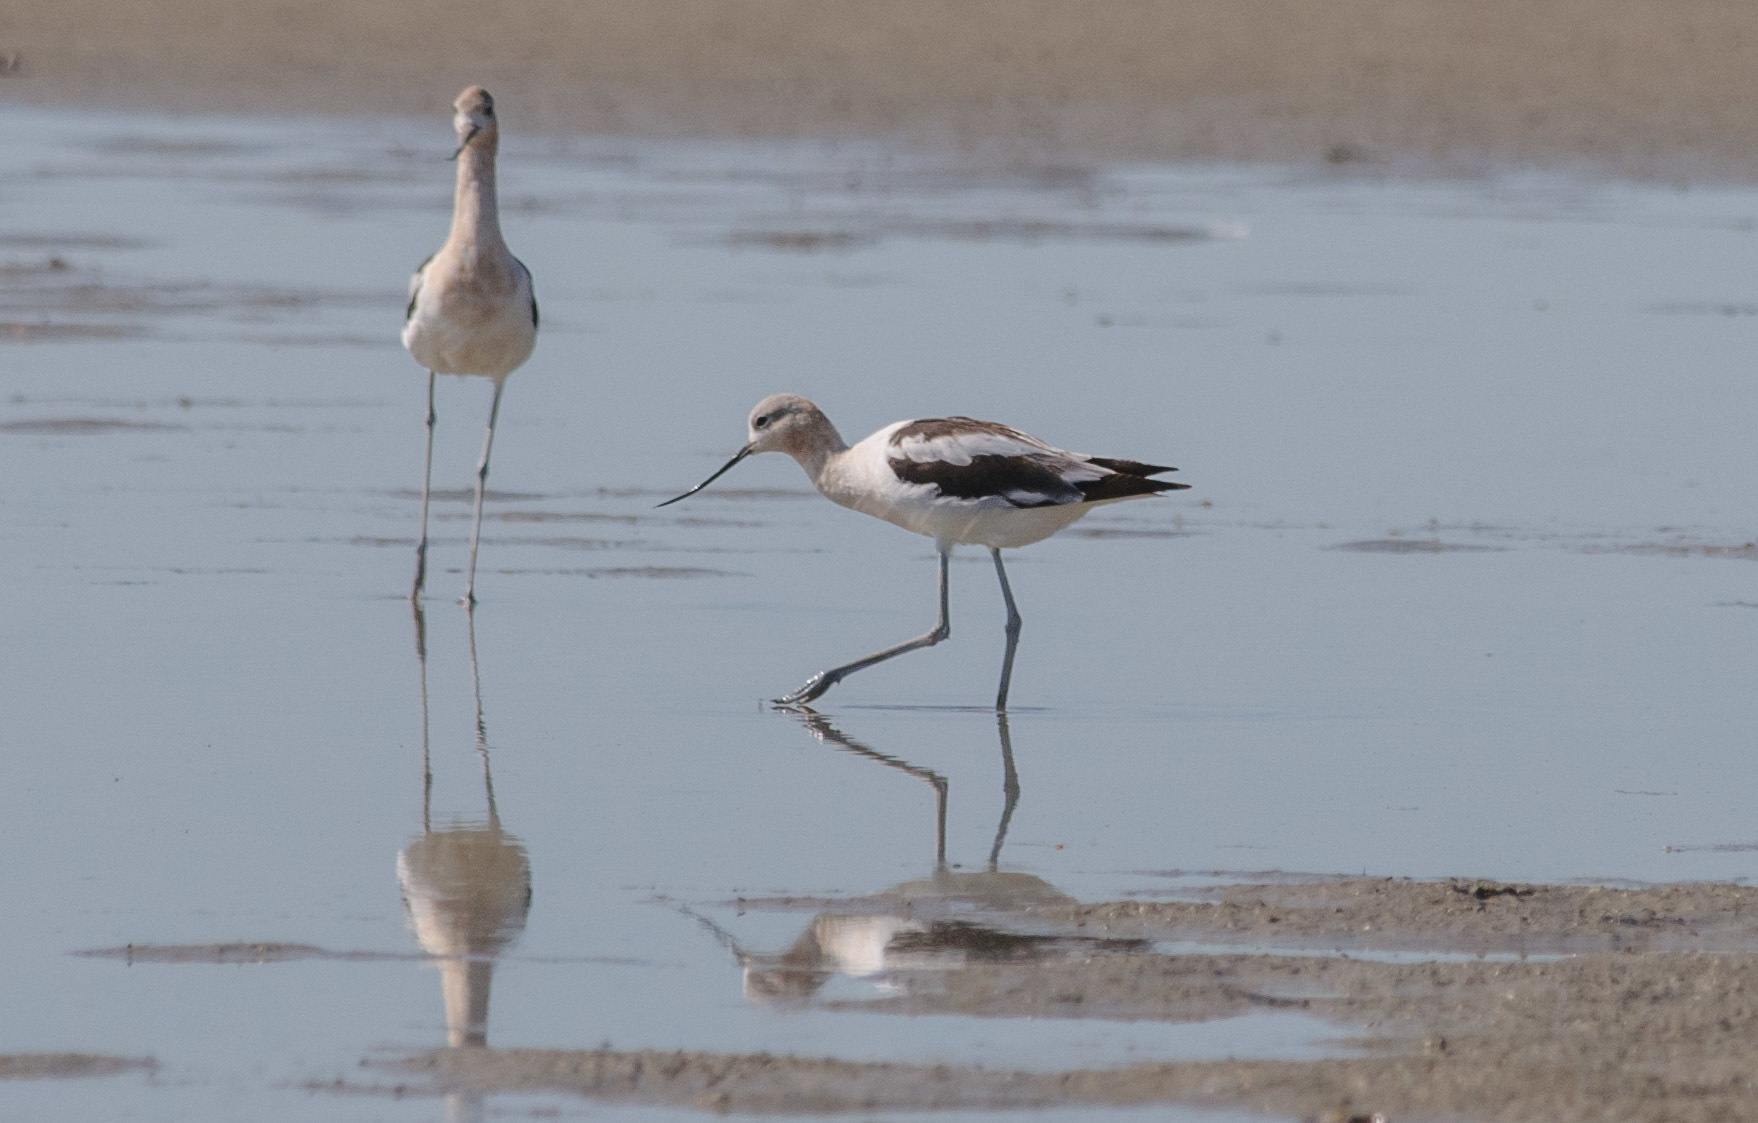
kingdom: Animalia
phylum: Chordata
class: Aves
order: Charadriiformes
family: Recurvirostridae
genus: Recurvirostra
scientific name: Recurvirostra americana
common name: American avocet
